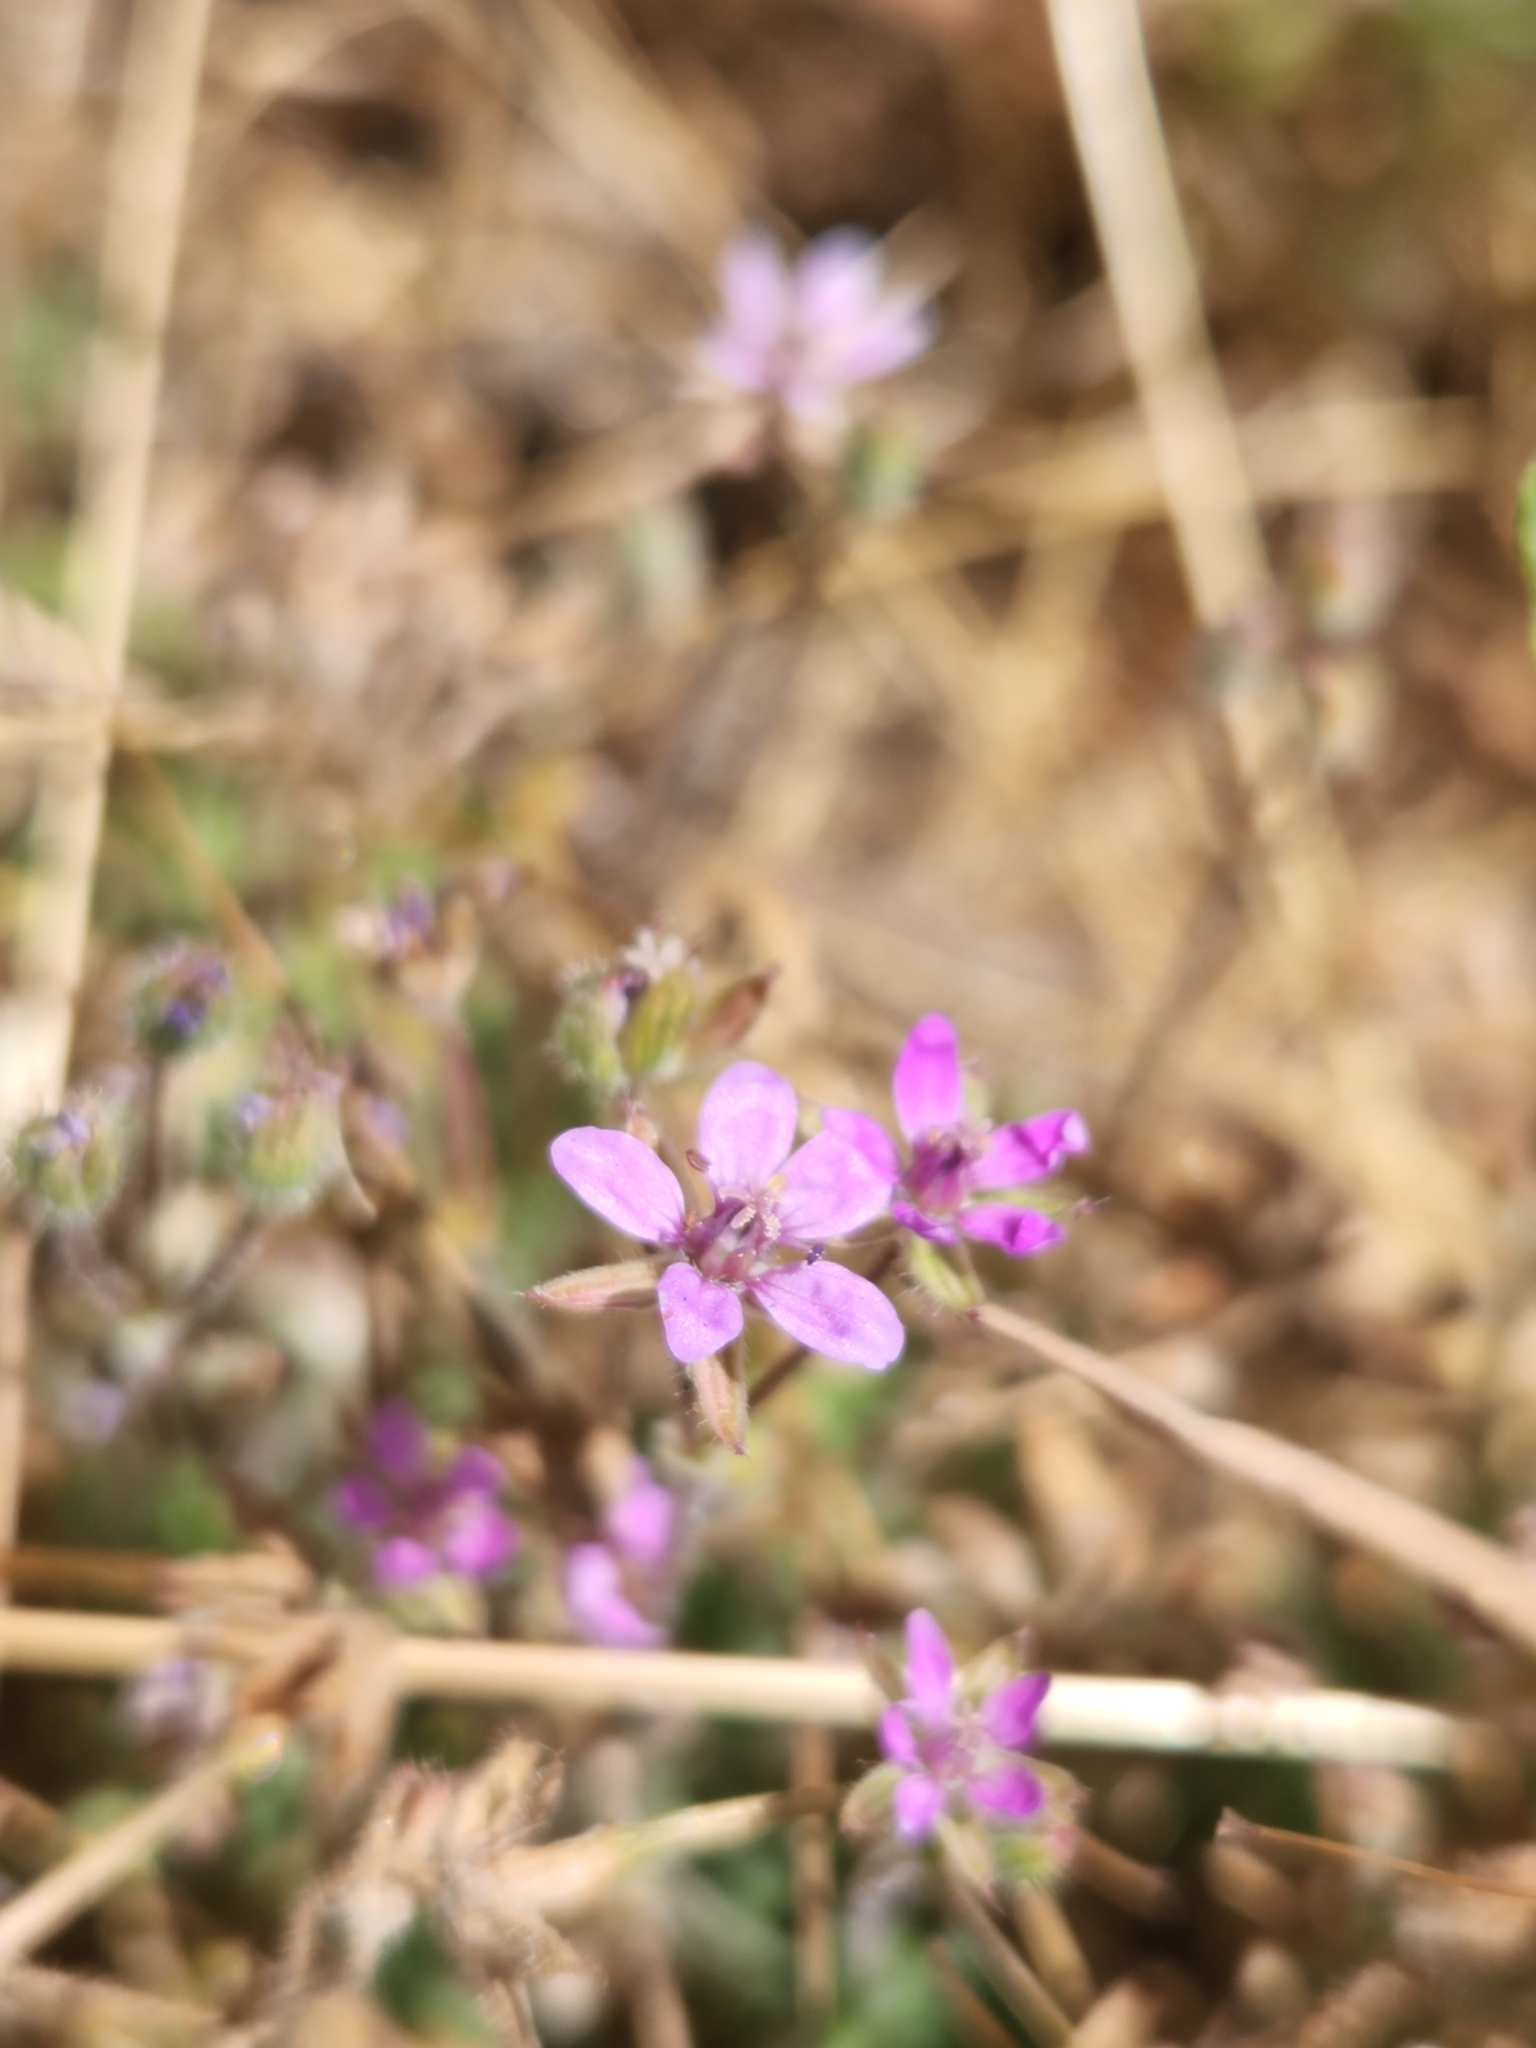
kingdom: Plantae
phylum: Tracheophyta
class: Magnoliopsida
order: Geraniales
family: Geraniaceae
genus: Erodium
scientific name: Erodium cicutarium
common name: Common stork's-bill
